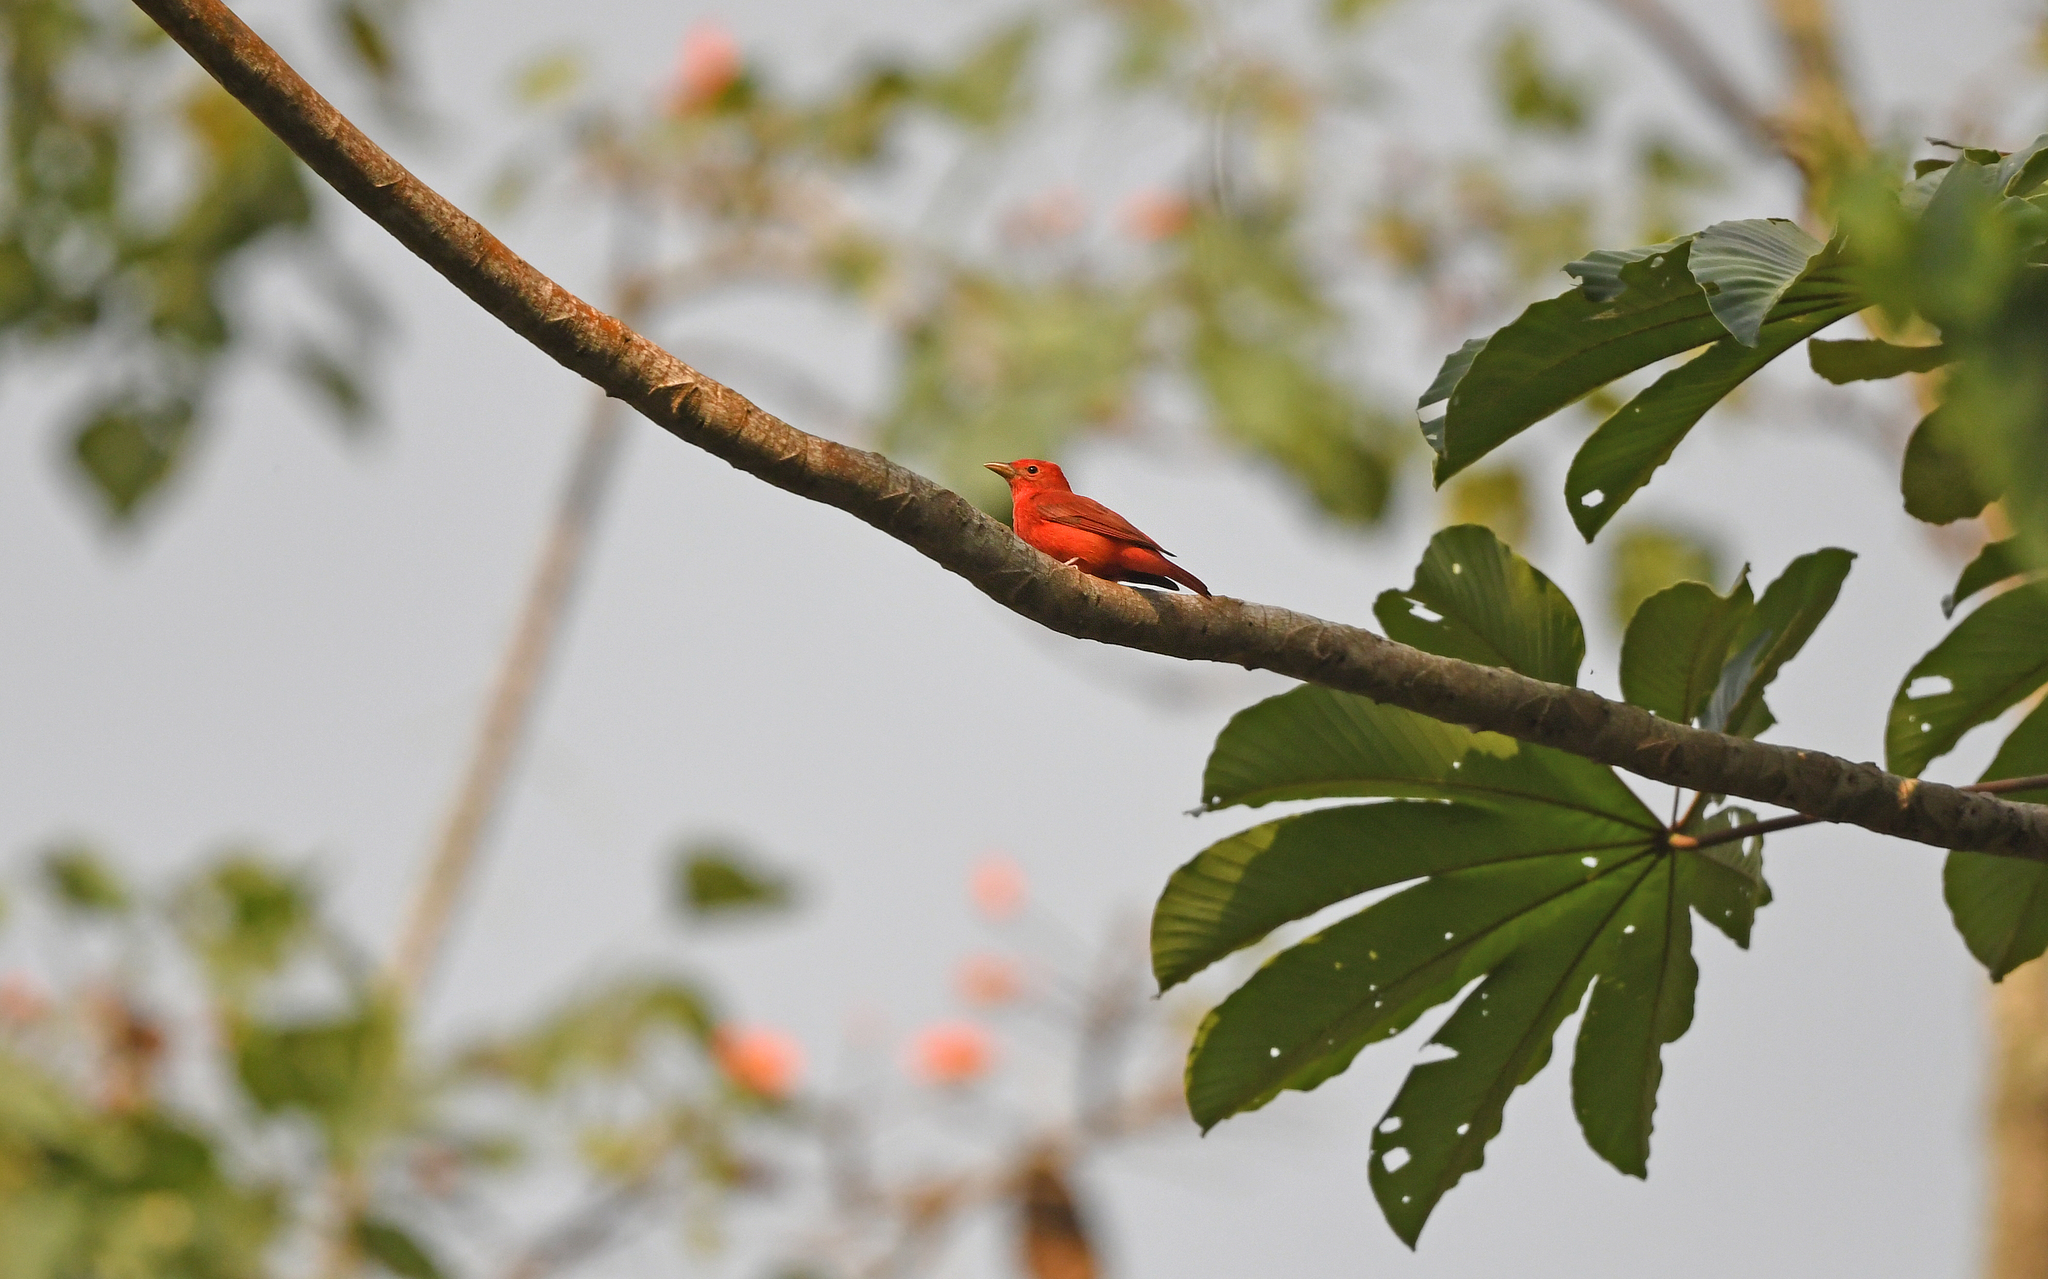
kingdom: Animalia
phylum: Chordata
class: Aves
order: Passeriformes
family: Cardinalidae
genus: Piranga
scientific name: Piranga rubra
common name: Summer tanager
